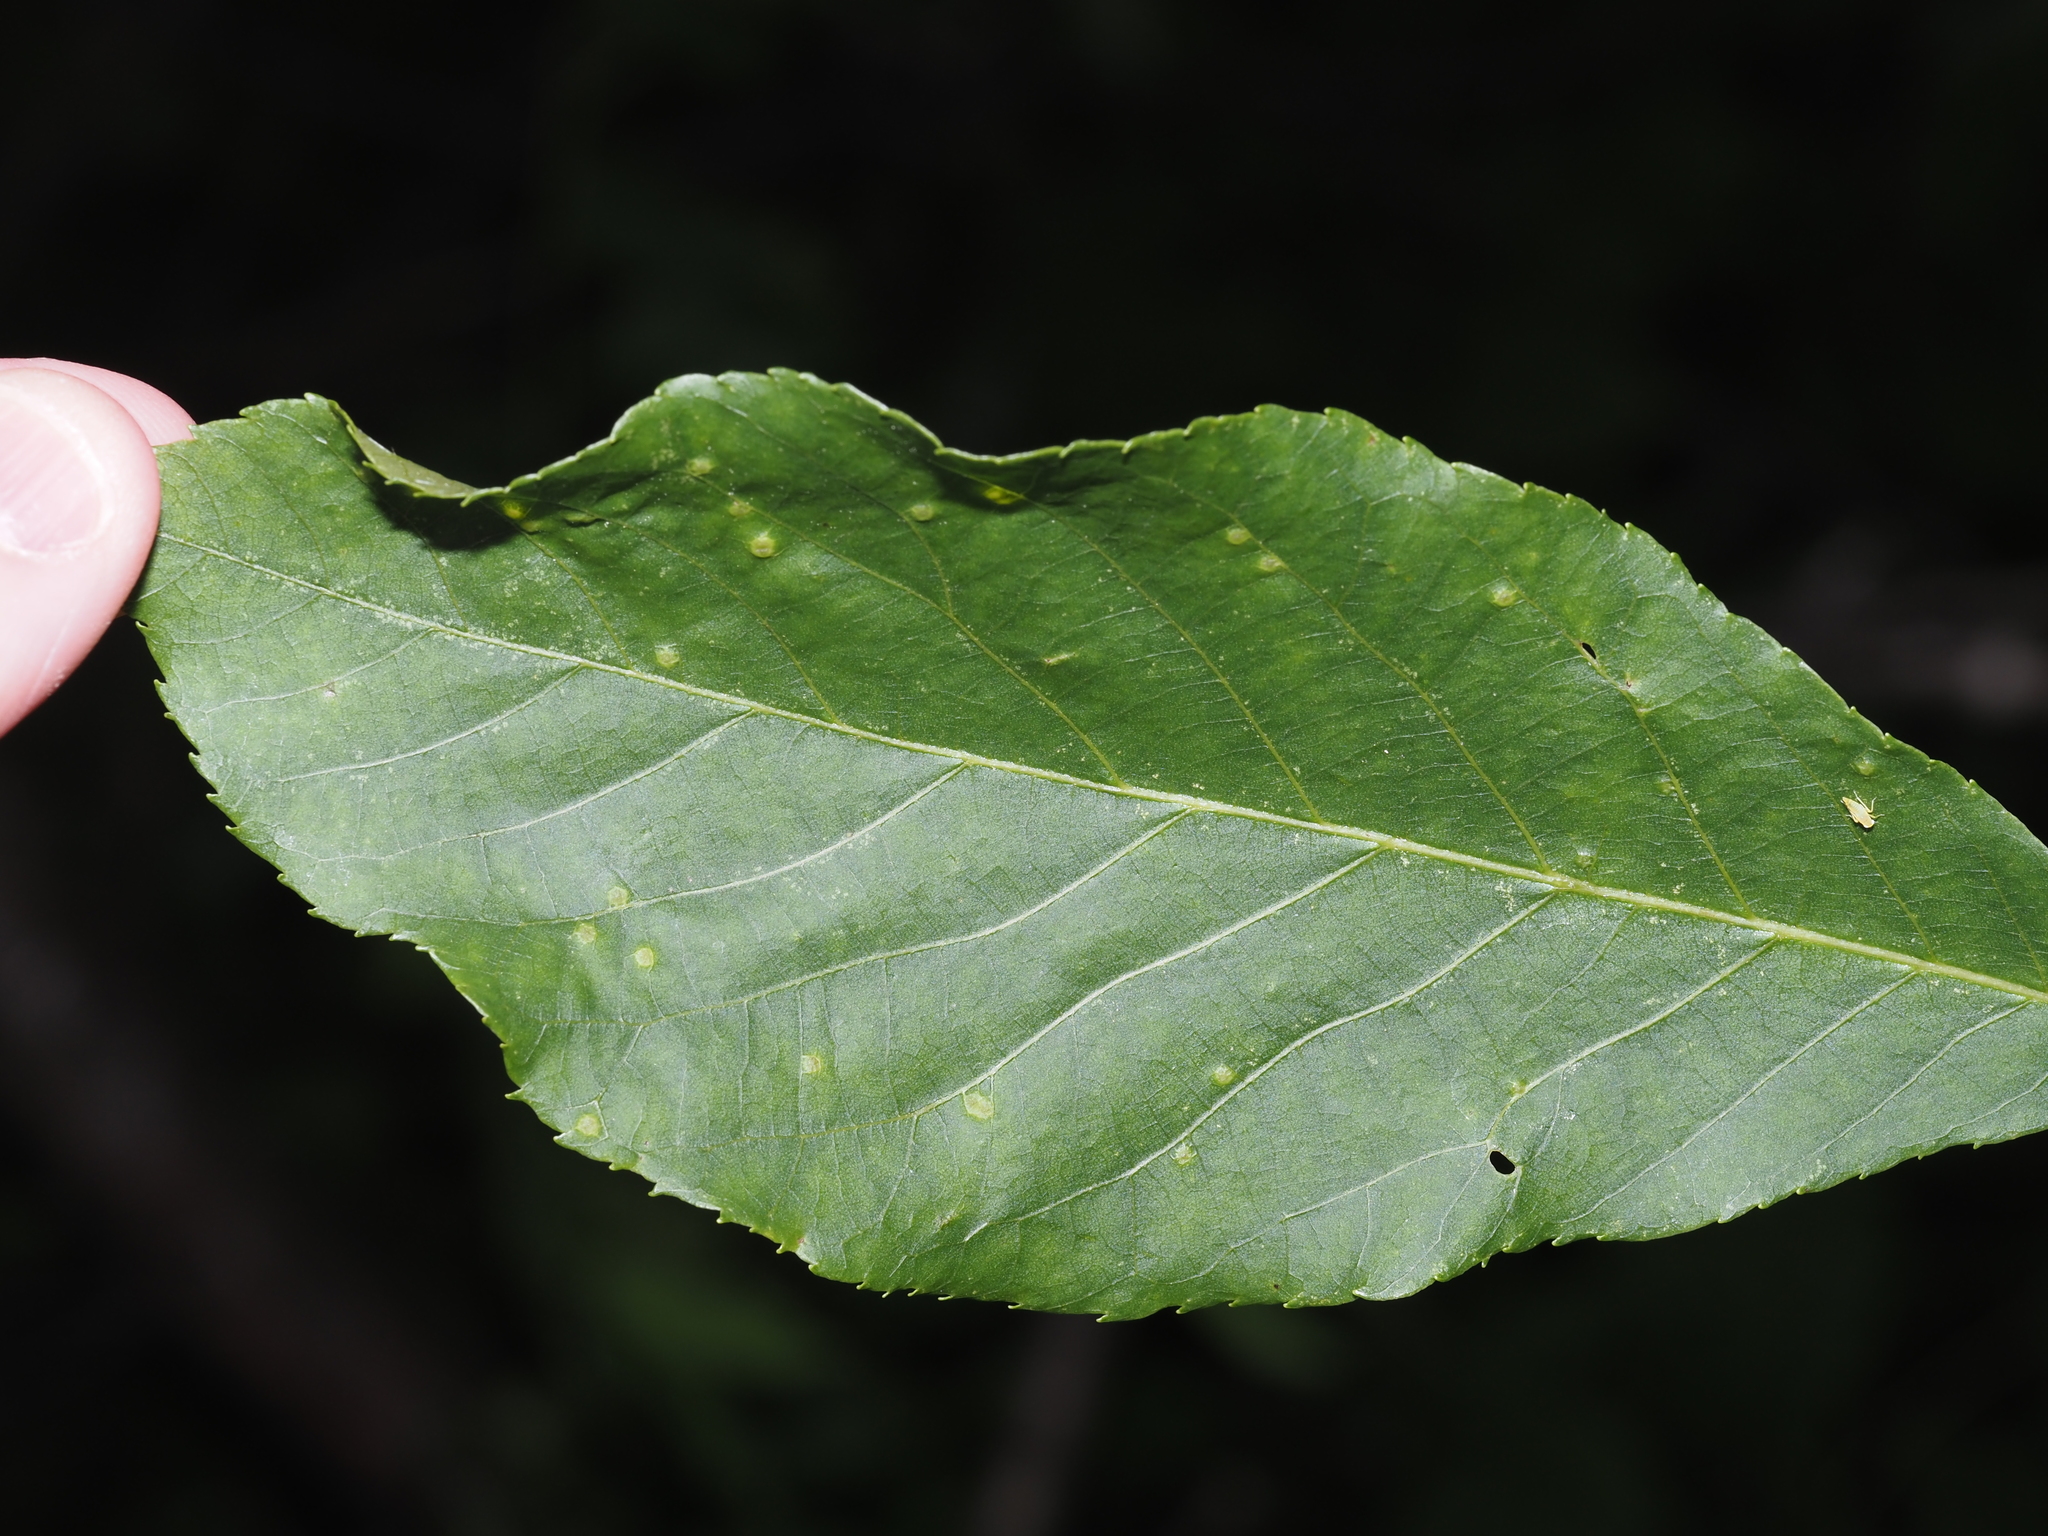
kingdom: Animalia
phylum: Arthropoda
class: Insecta
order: Diptera
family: Cecidomyiidae
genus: Caryomyia
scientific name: Caryomyia caryae
